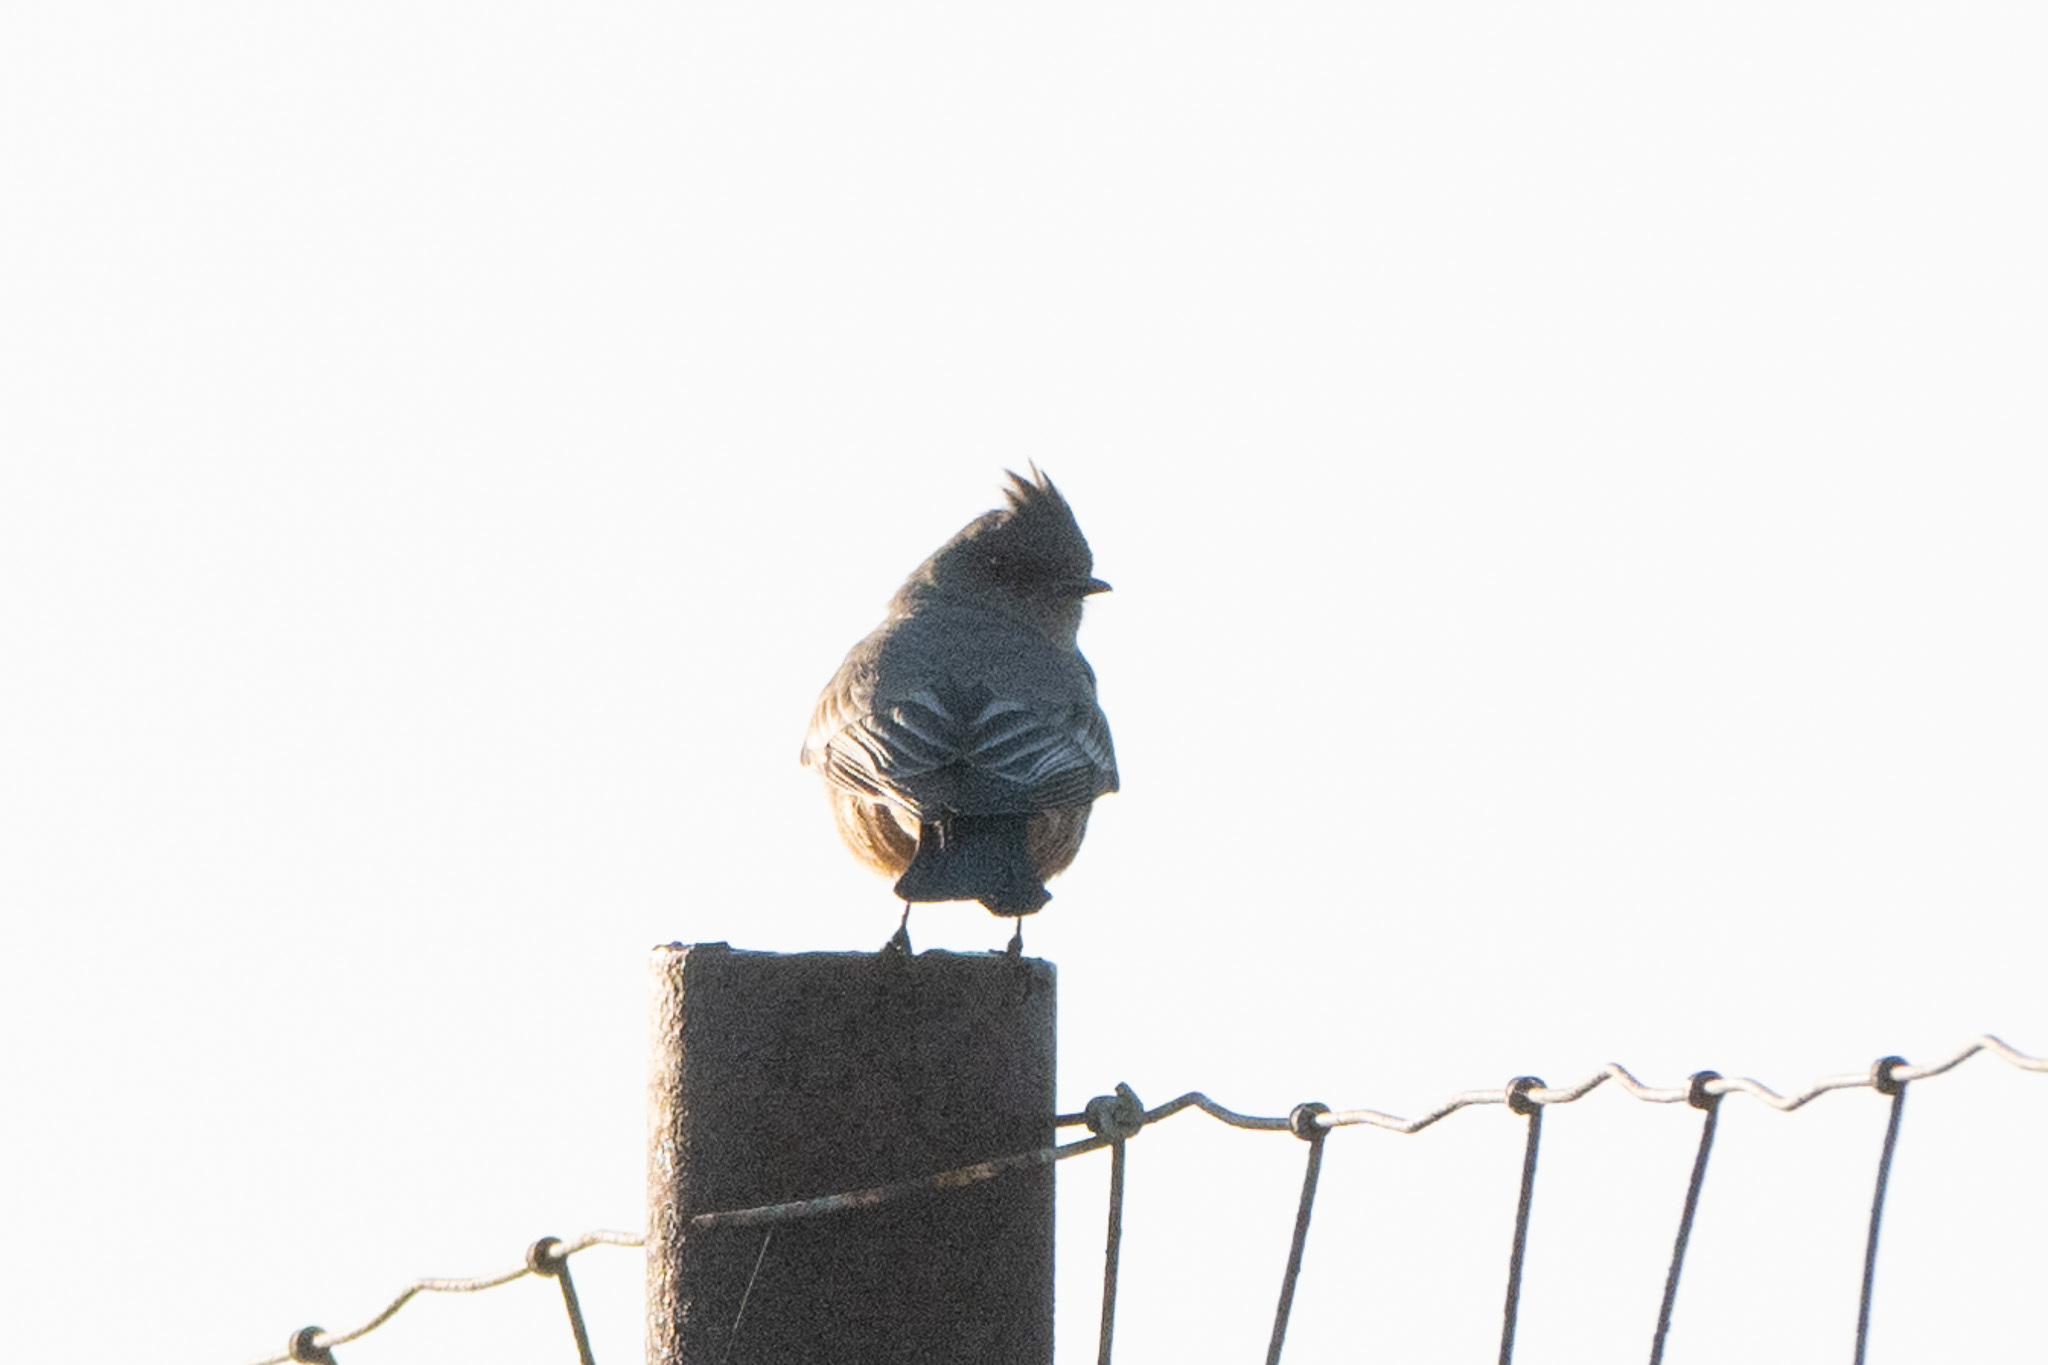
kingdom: Animalia
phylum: Chordata
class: Aves
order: Passeriformes
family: Tyrannidae
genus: Sayornis
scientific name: Sayornis saya
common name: Say's phoebe
